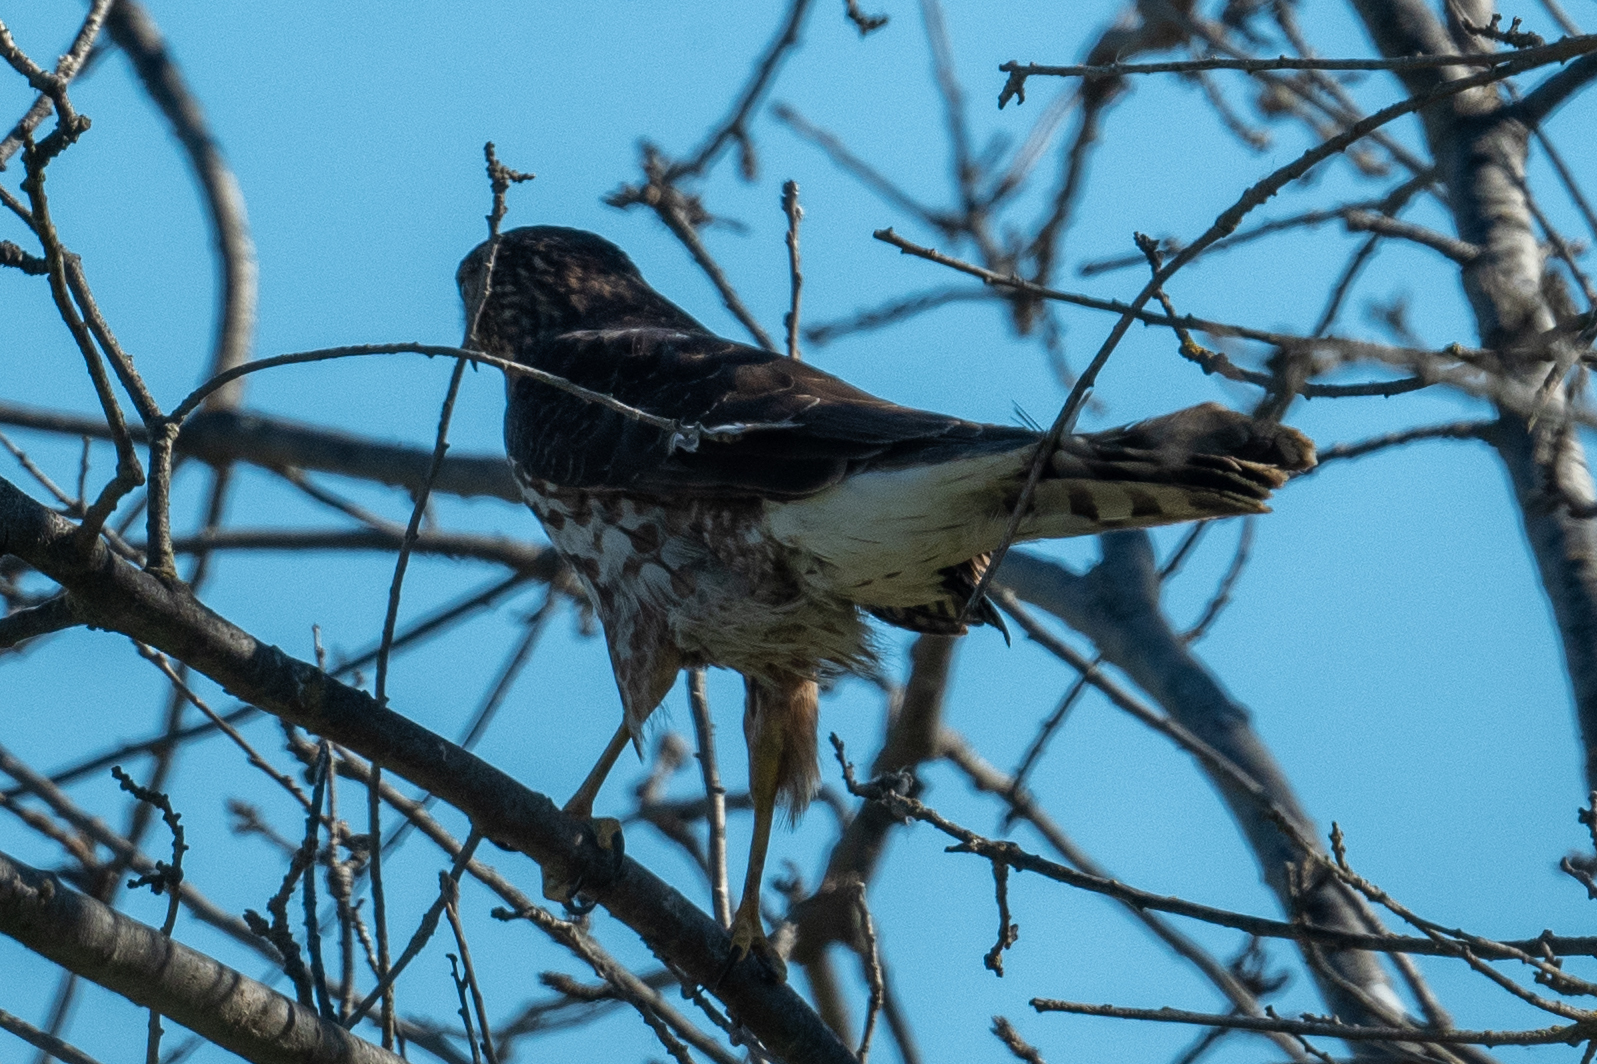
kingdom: Animalia
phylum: Chordata
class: Aves
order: Accipitriformes
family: Accipitridae
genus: Accipiter
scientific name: Accipiter cooperii
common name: Cooper's hawk
